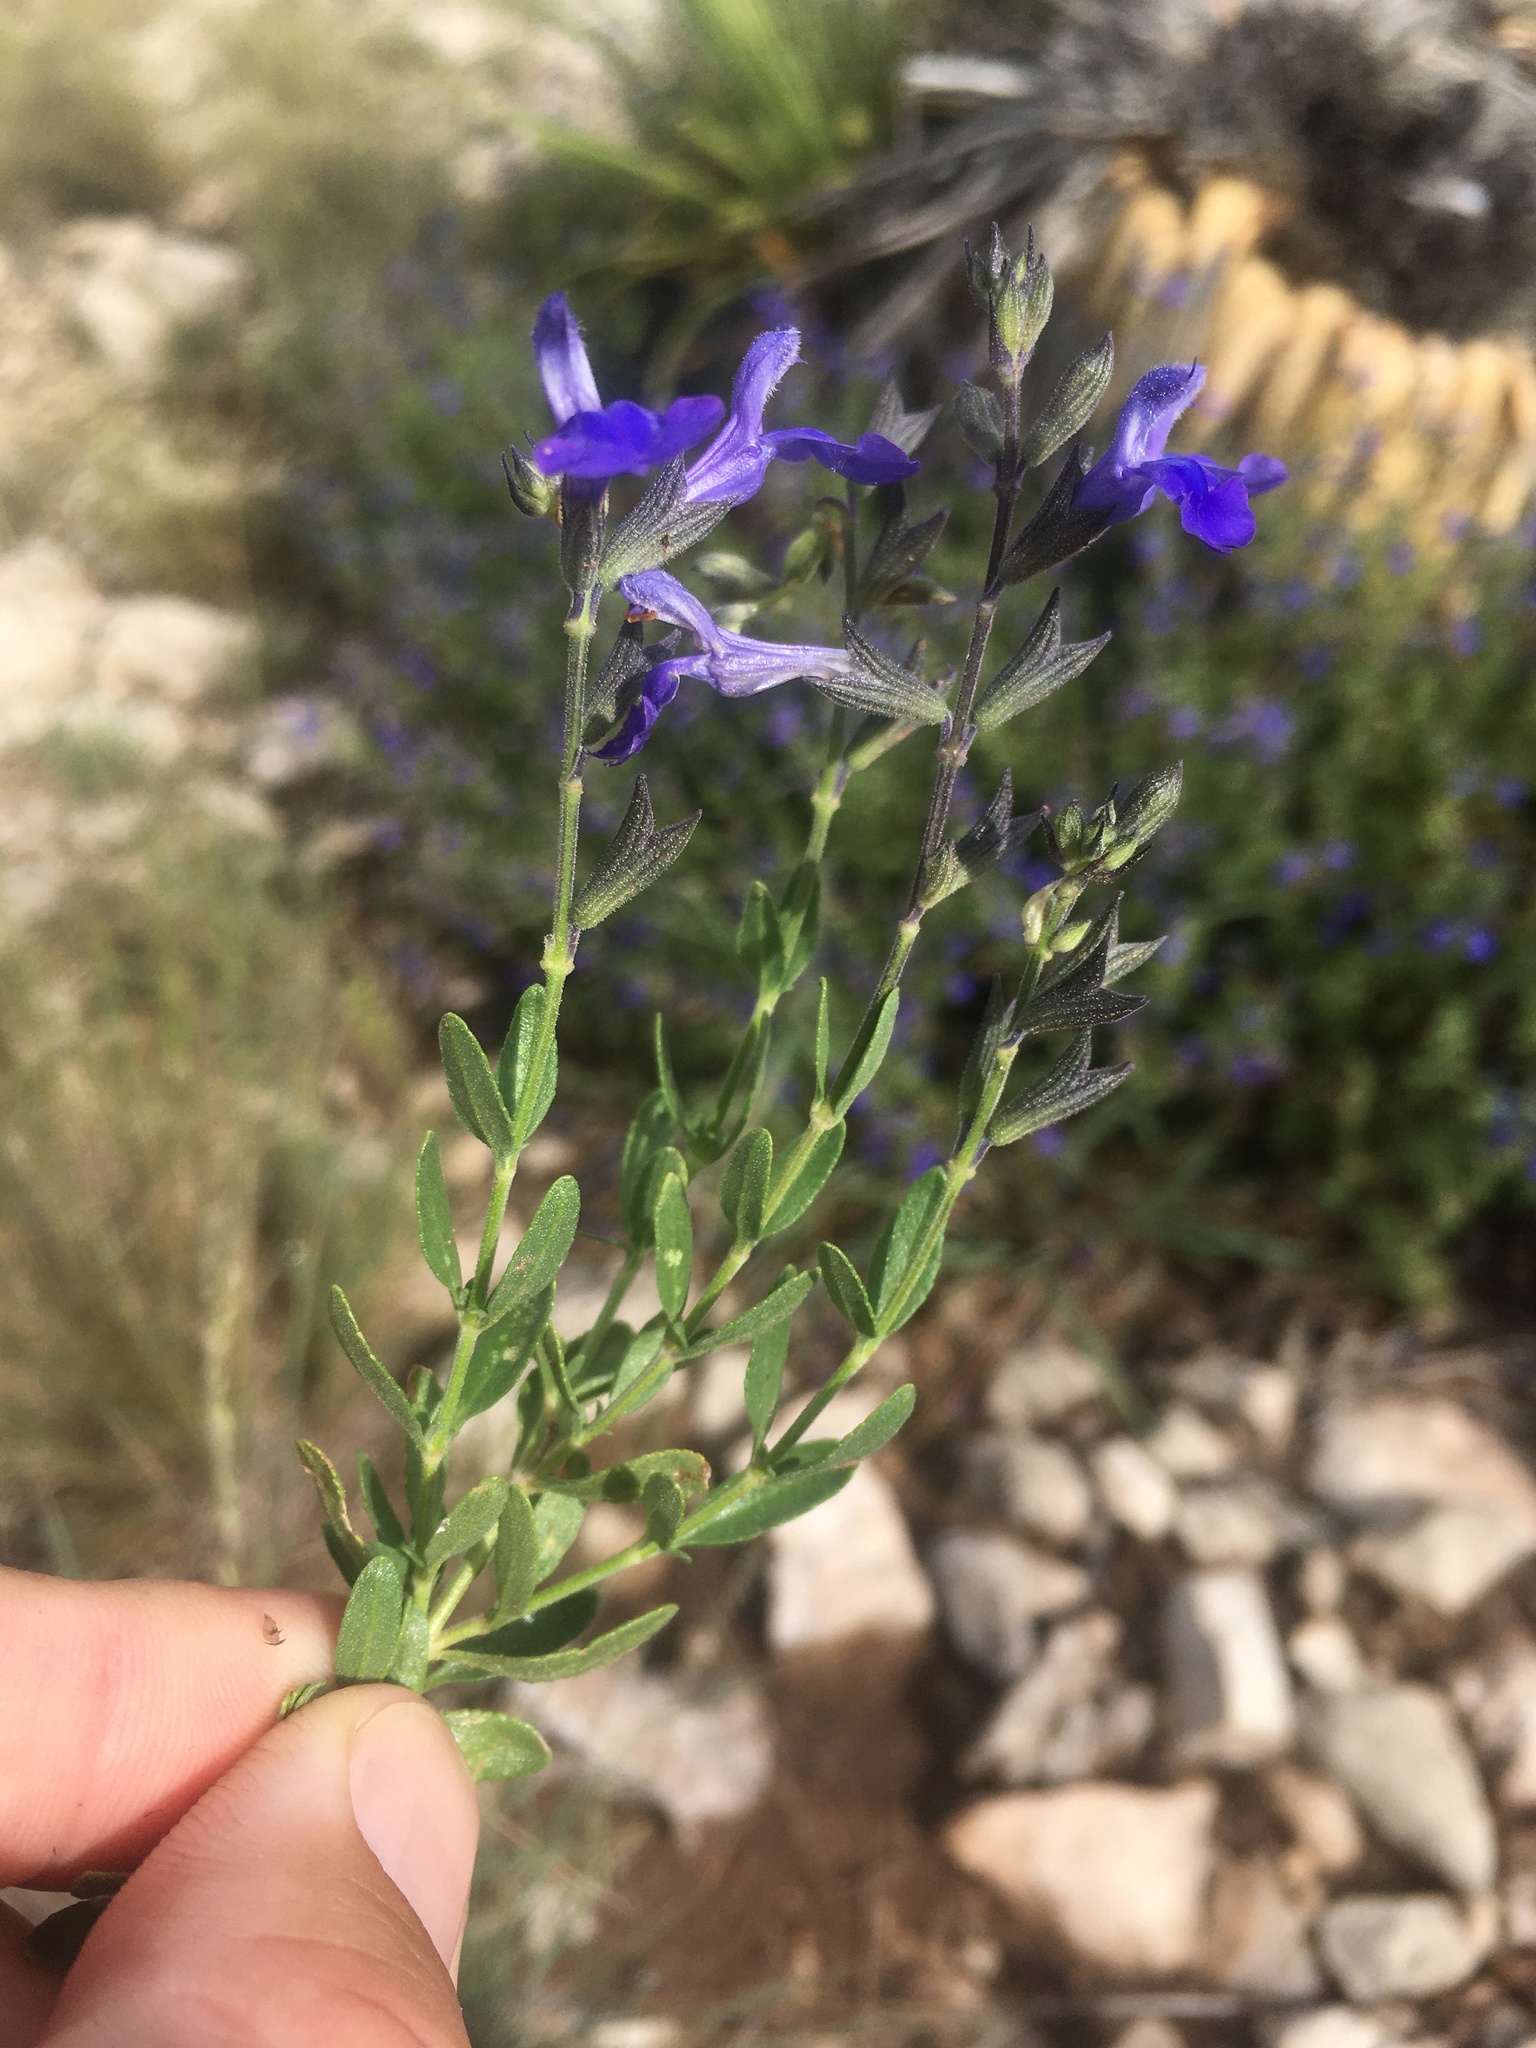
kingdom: Plantae
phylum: Tracheophyta
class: Magnoliopsida
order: Lamiales
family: Lamiaceae
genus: Salvia
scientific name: Salvia lycioides
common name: Canyon sage
